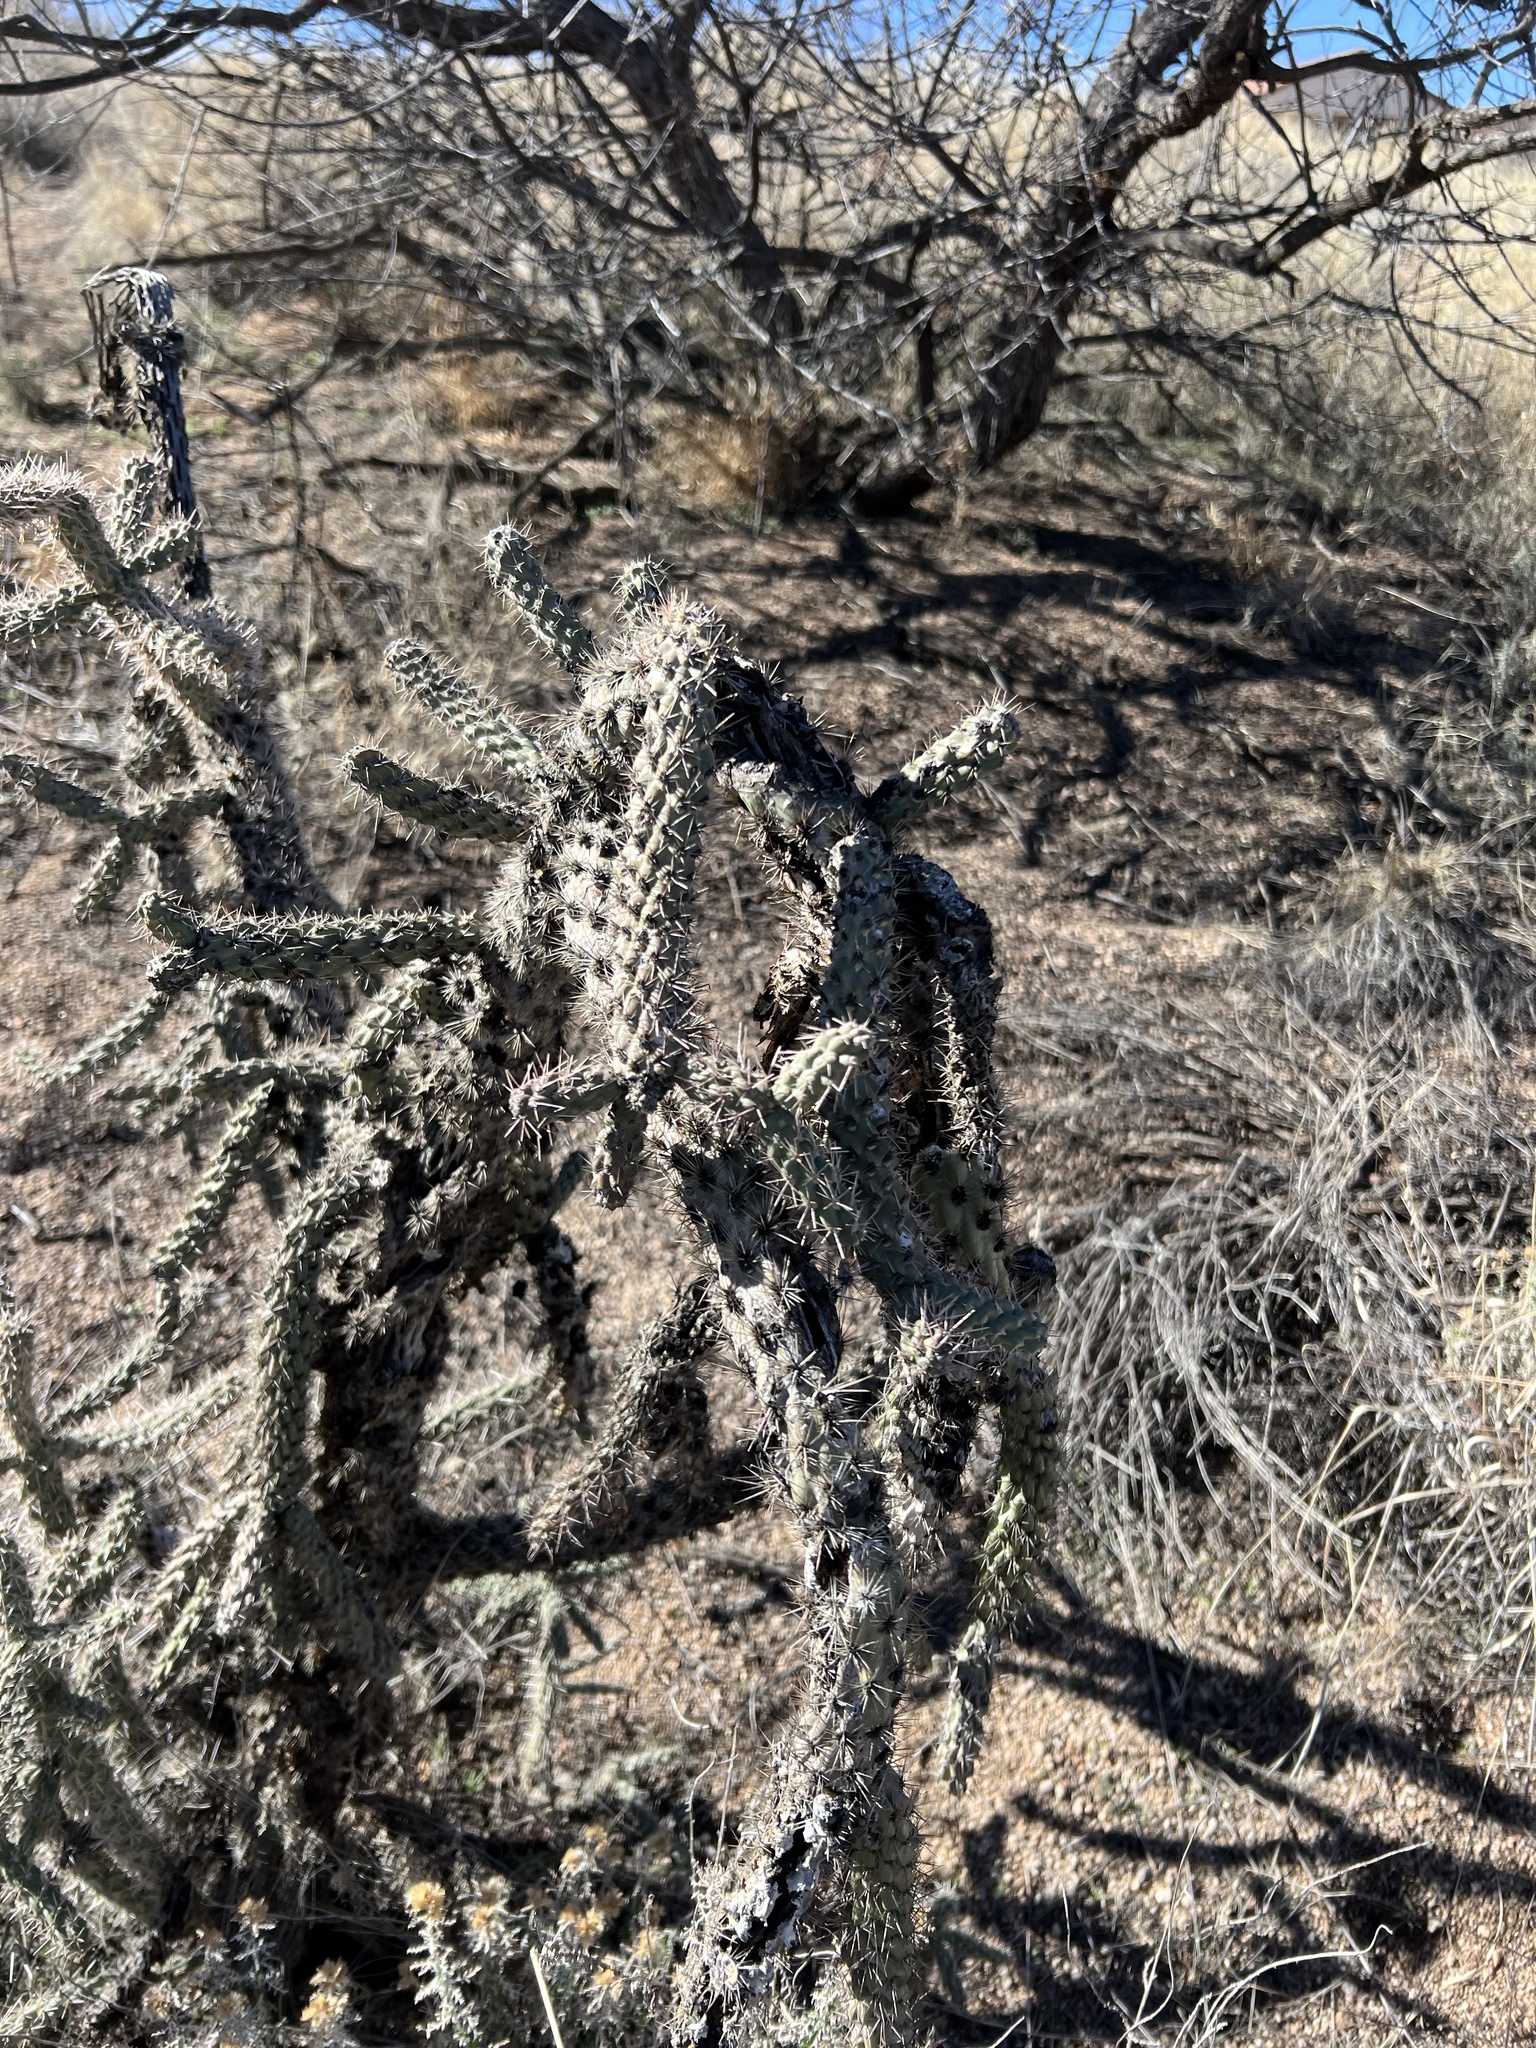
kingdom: Plantae
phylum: Tracheophyta
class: Magnoliopsida
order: Caryophyllales
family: Cactaceae
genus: Cylindropuntia
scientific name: Cylindropuntia imbricata
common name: Candelabrum cactus
